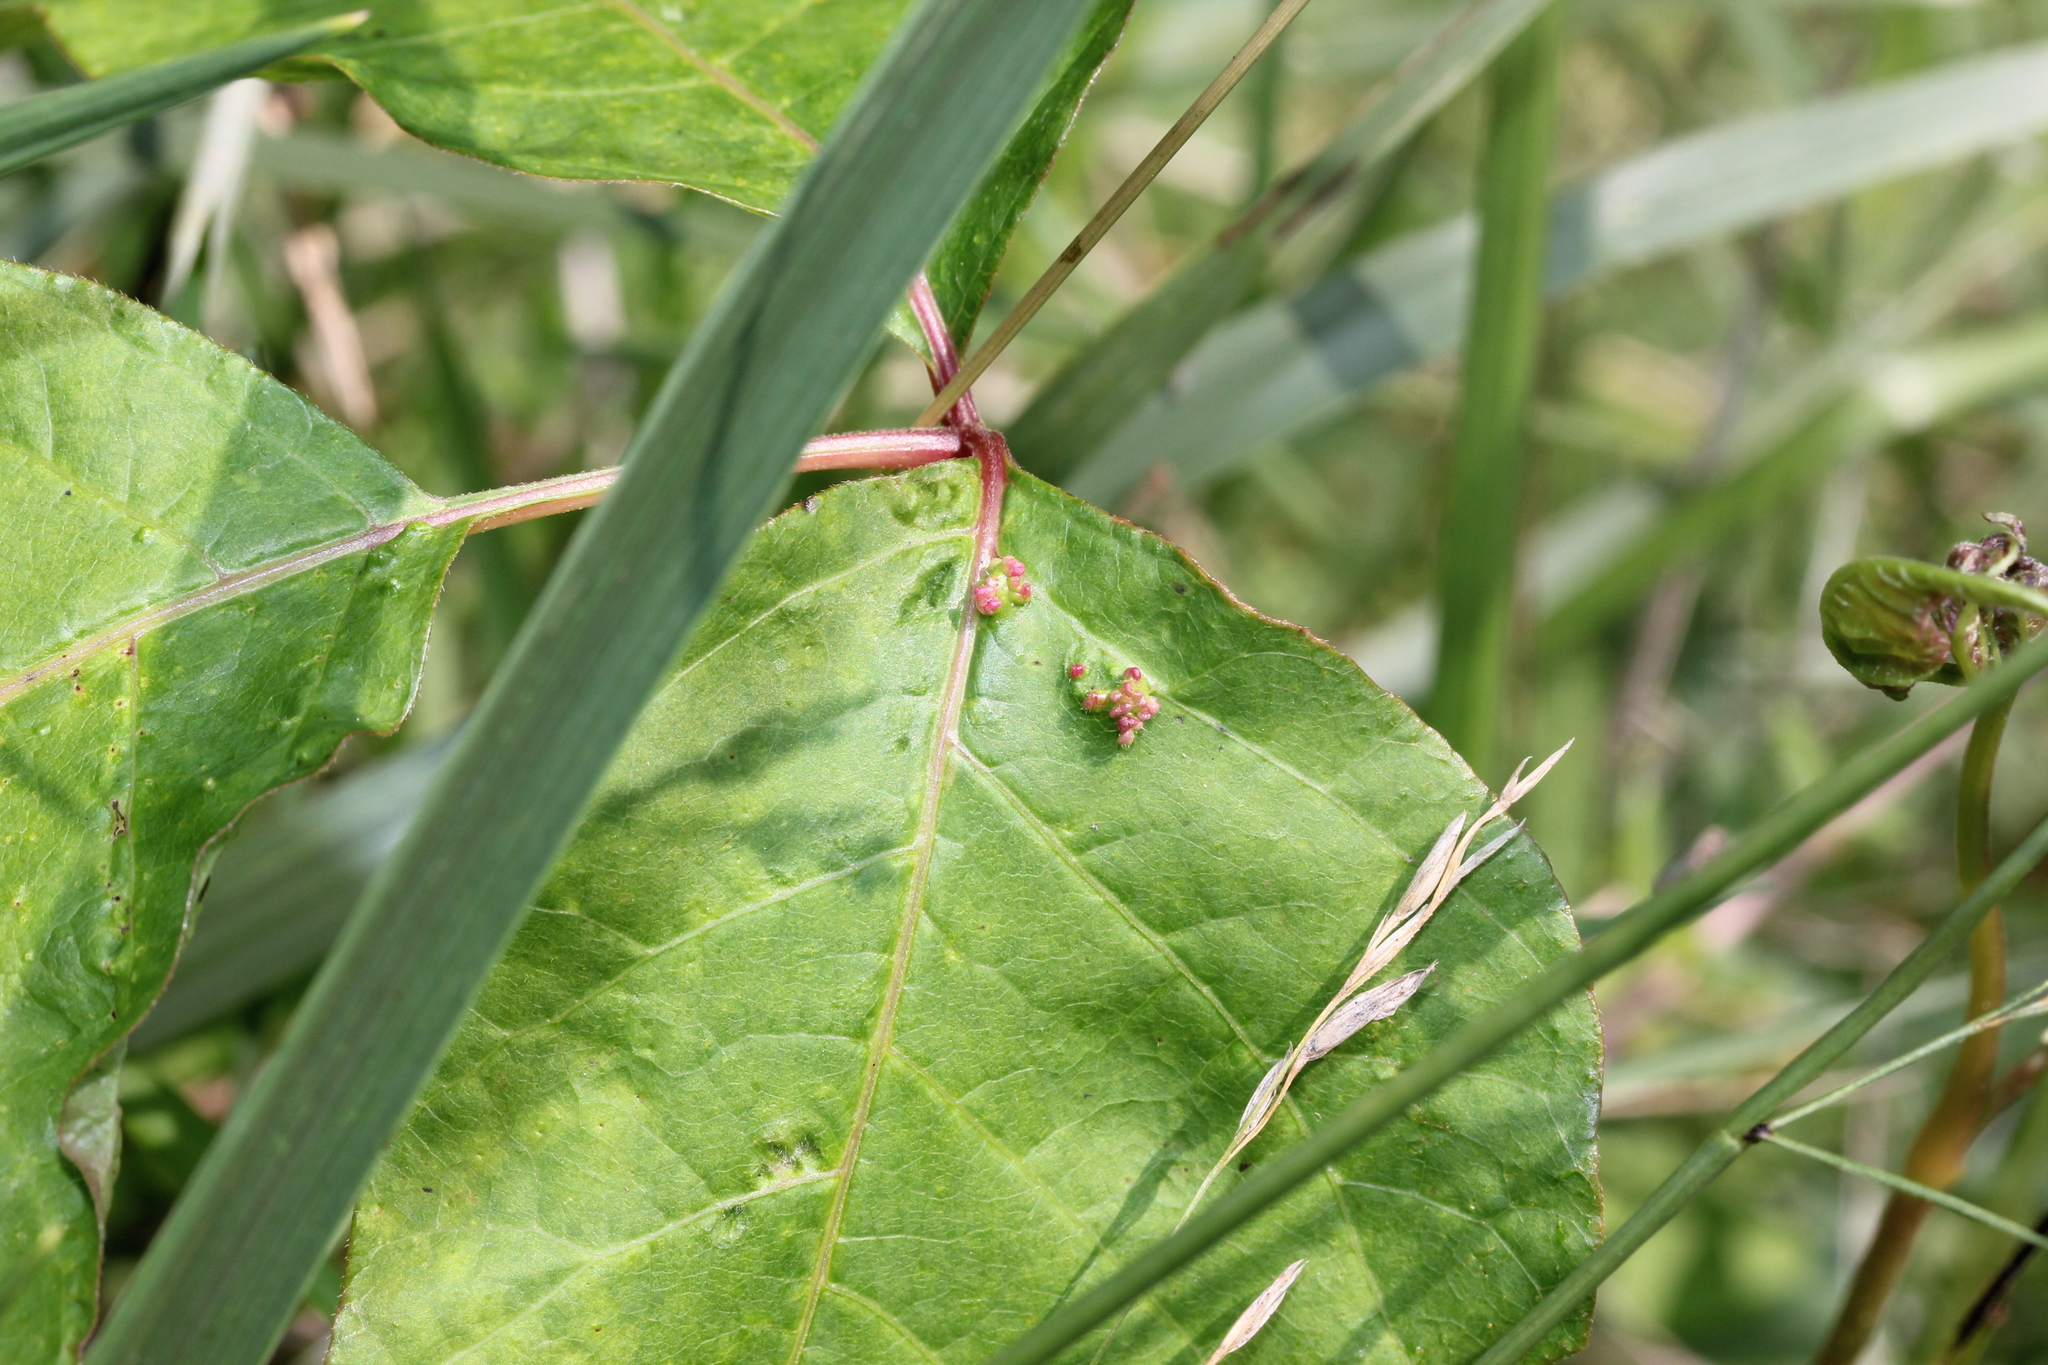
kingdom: Animalia
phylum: Arthropoda
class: Arachnida
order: Trombidiformes
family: Eriophyidae
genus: Aculops
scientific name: Aculops
